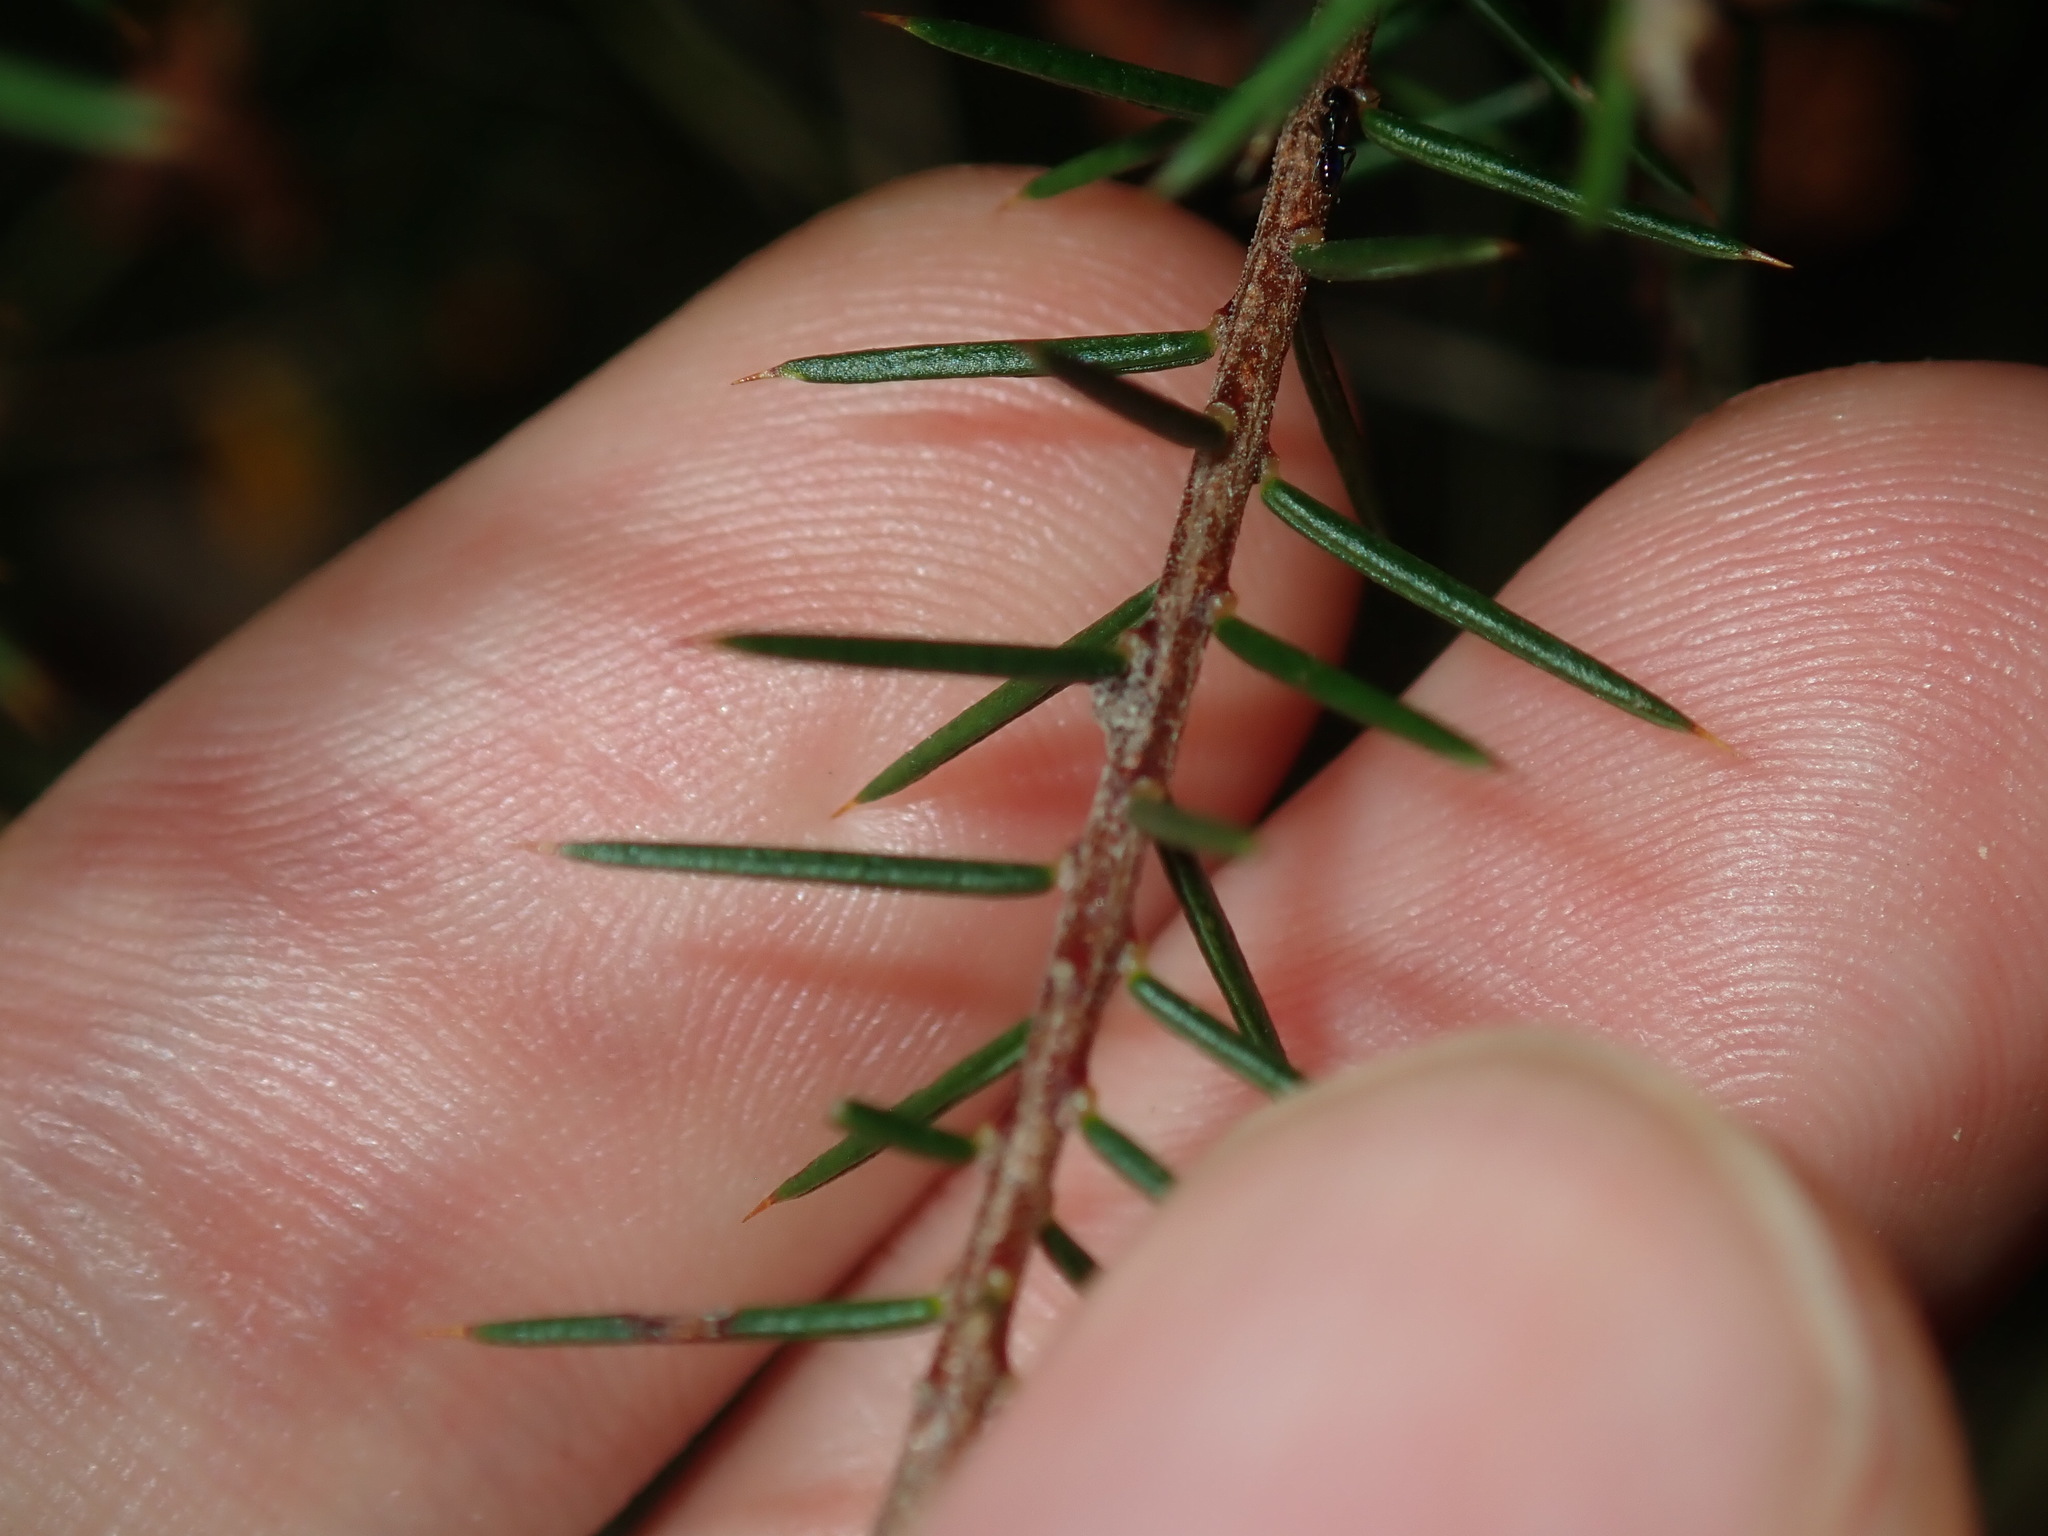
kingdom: Plantae
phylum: Tracheophyta
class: Magnoliopsida
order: Fabales
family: Fabaceae
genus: Dillwynia
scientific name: Dillwynia sieberi
